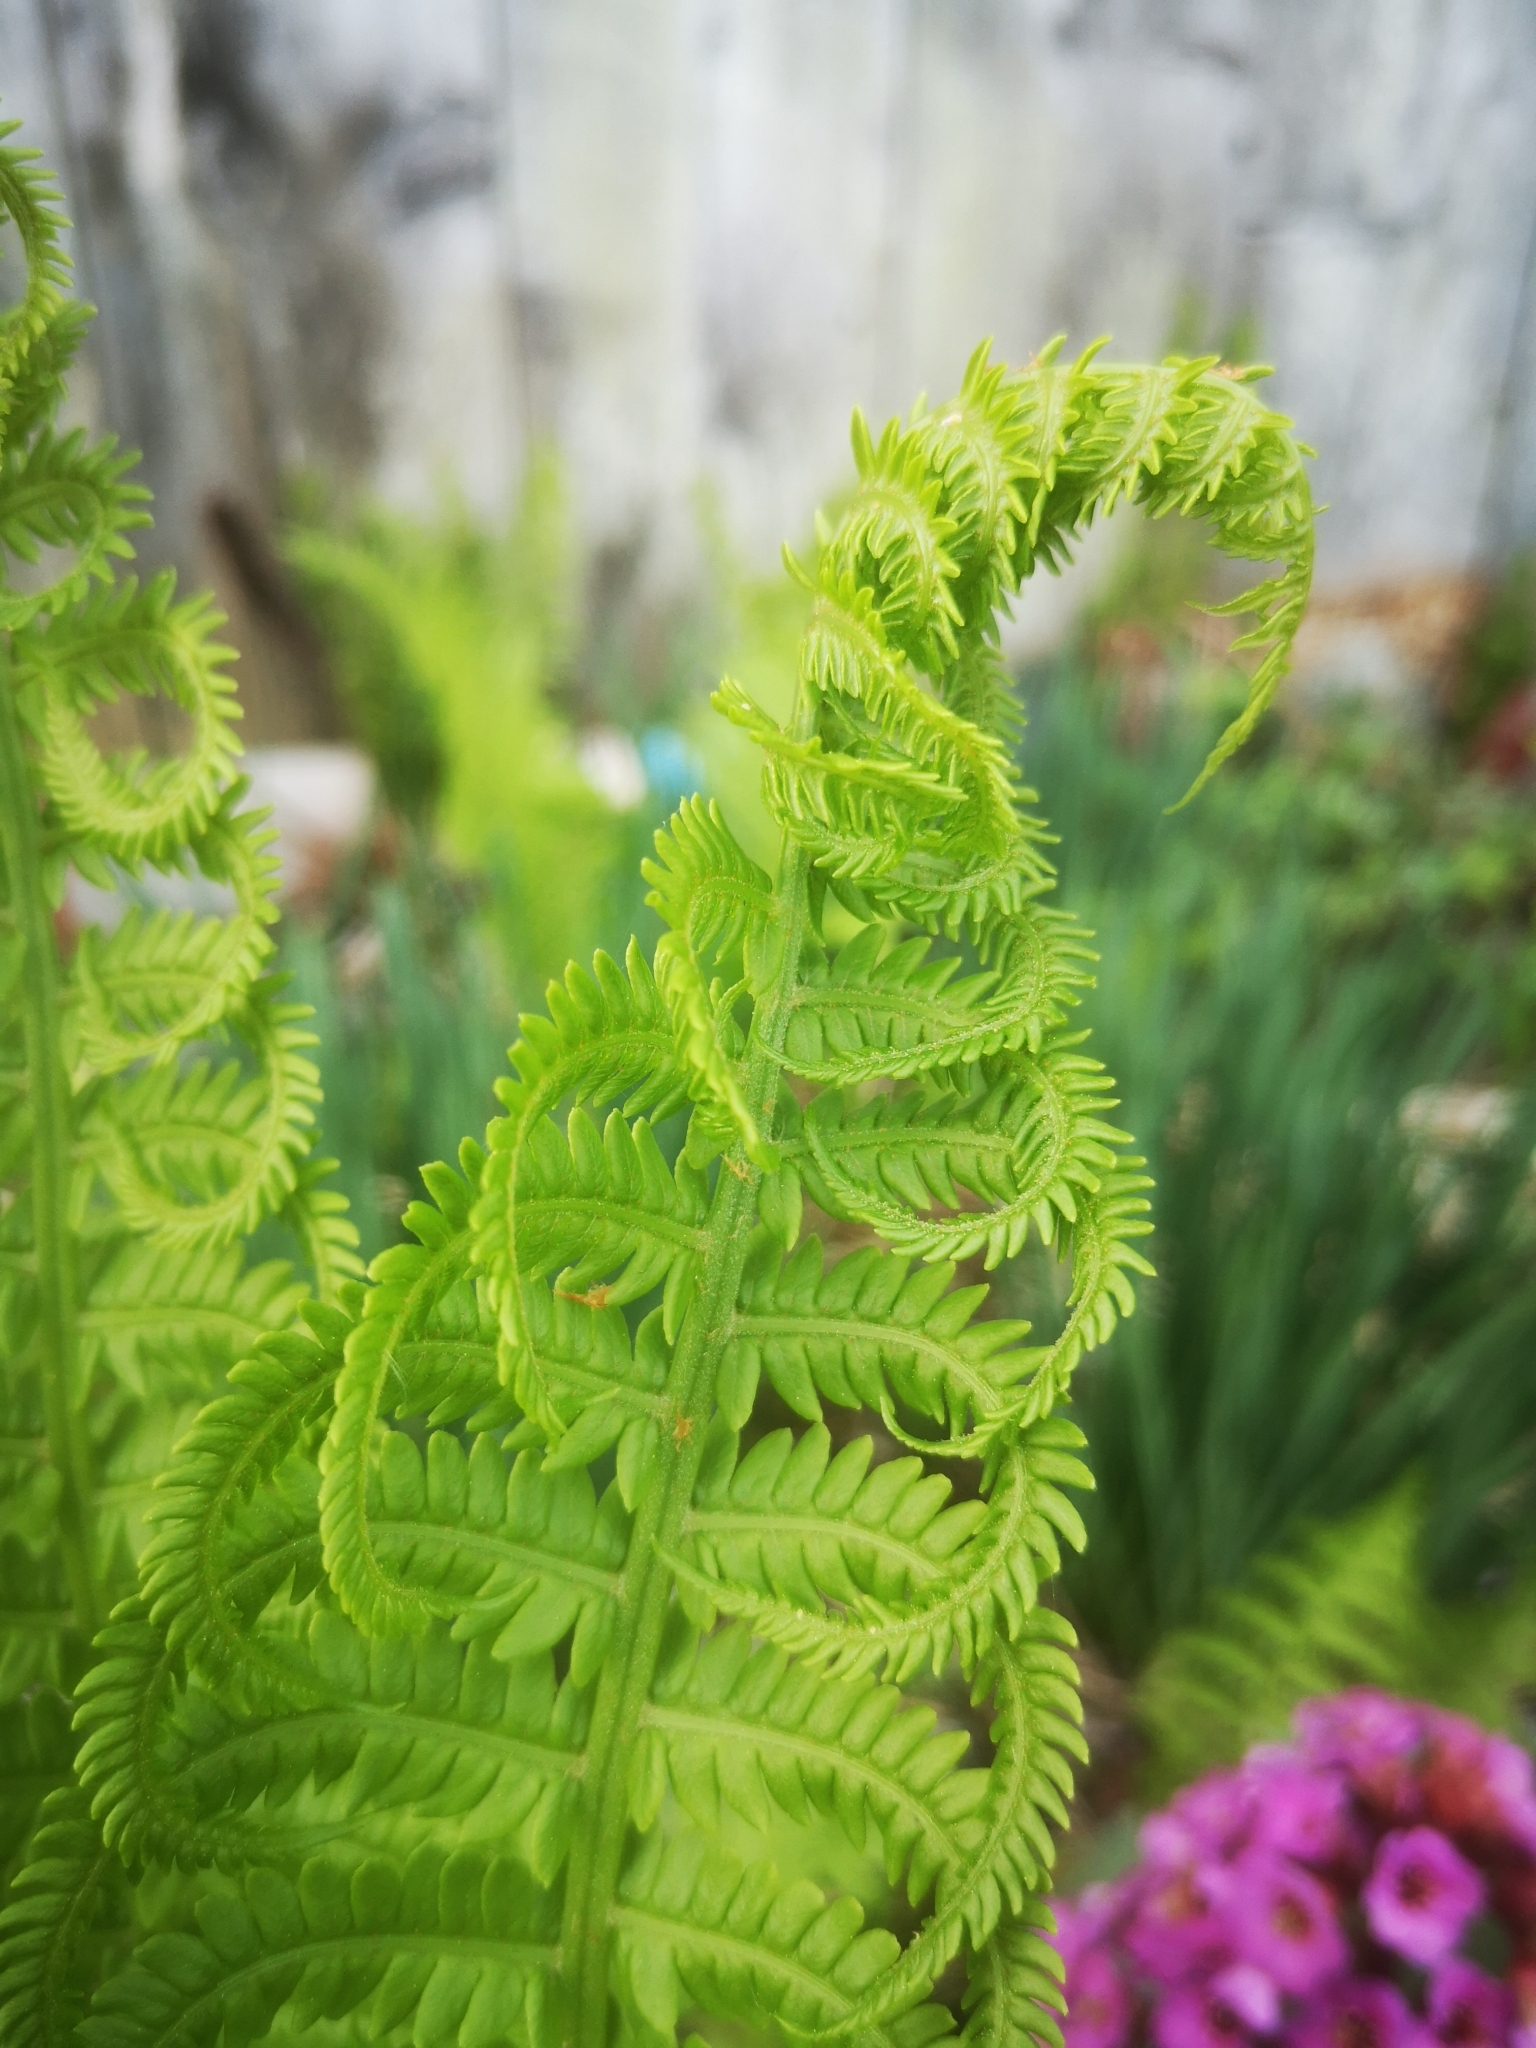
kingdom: Plantae
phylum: Tracheophyta
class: Polypodiopsida
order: Polypodiales
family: Onocleaceae
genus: Matteuccia
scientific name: Matteuccia struthiopteris
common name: Ostrich fern
